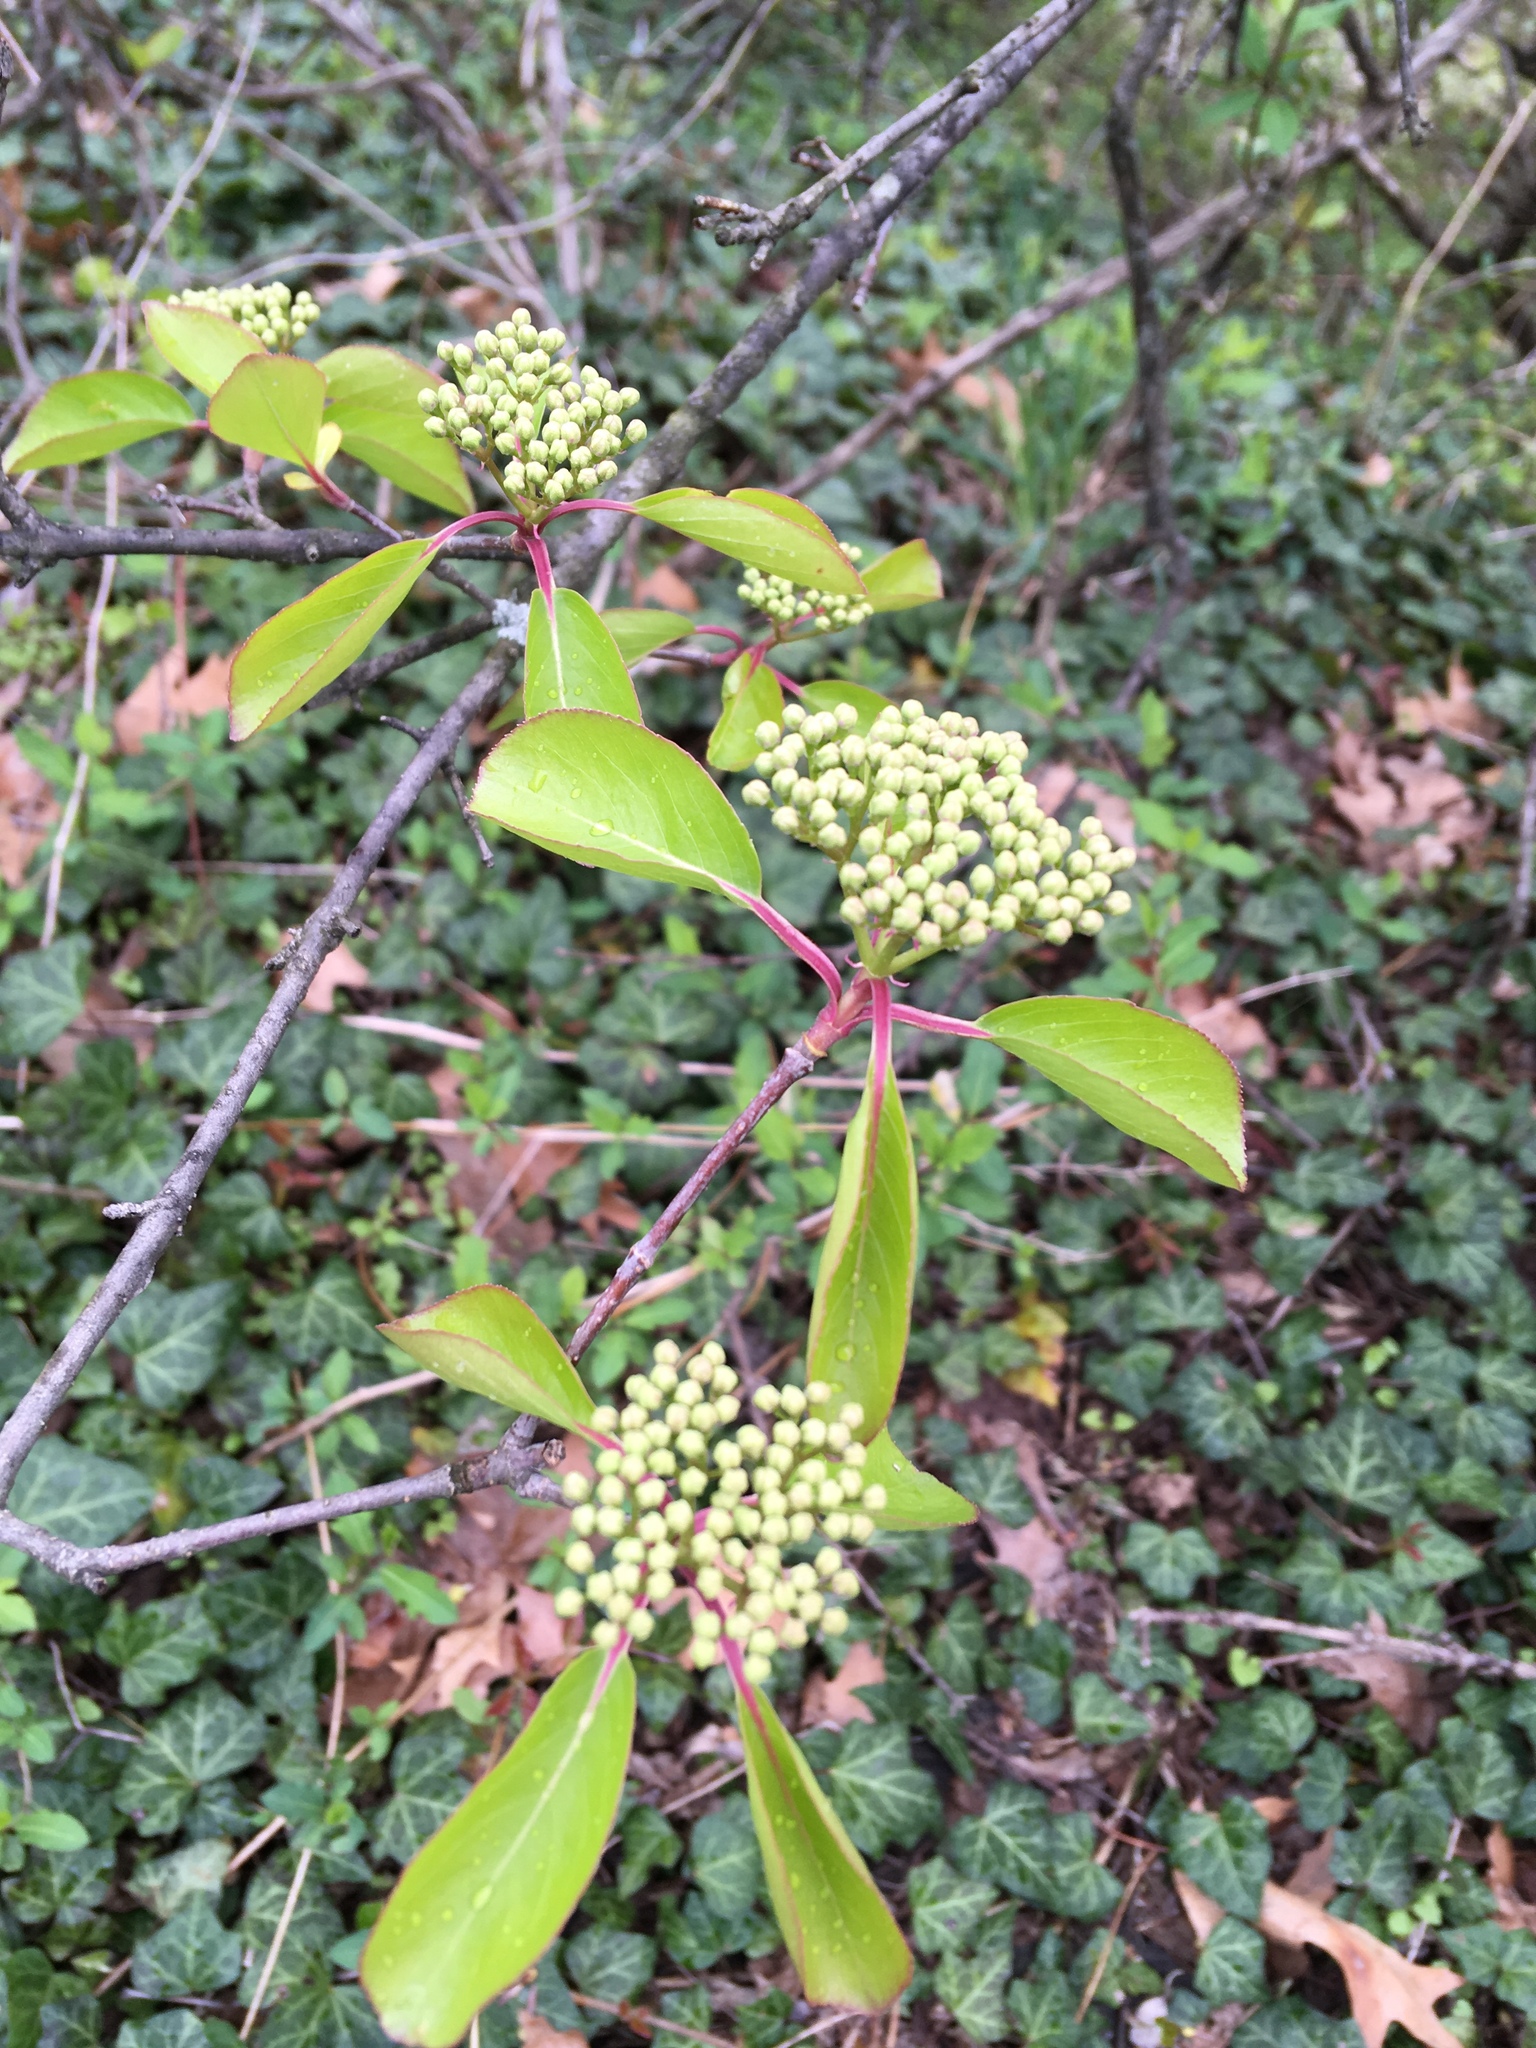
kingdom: Plantae
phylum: Tracheophyta
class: Magnoliopsida
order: Dipsacales
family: Viburnaceae
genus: Viburnum
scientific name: Viburnum prunifolium
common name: Black haw
